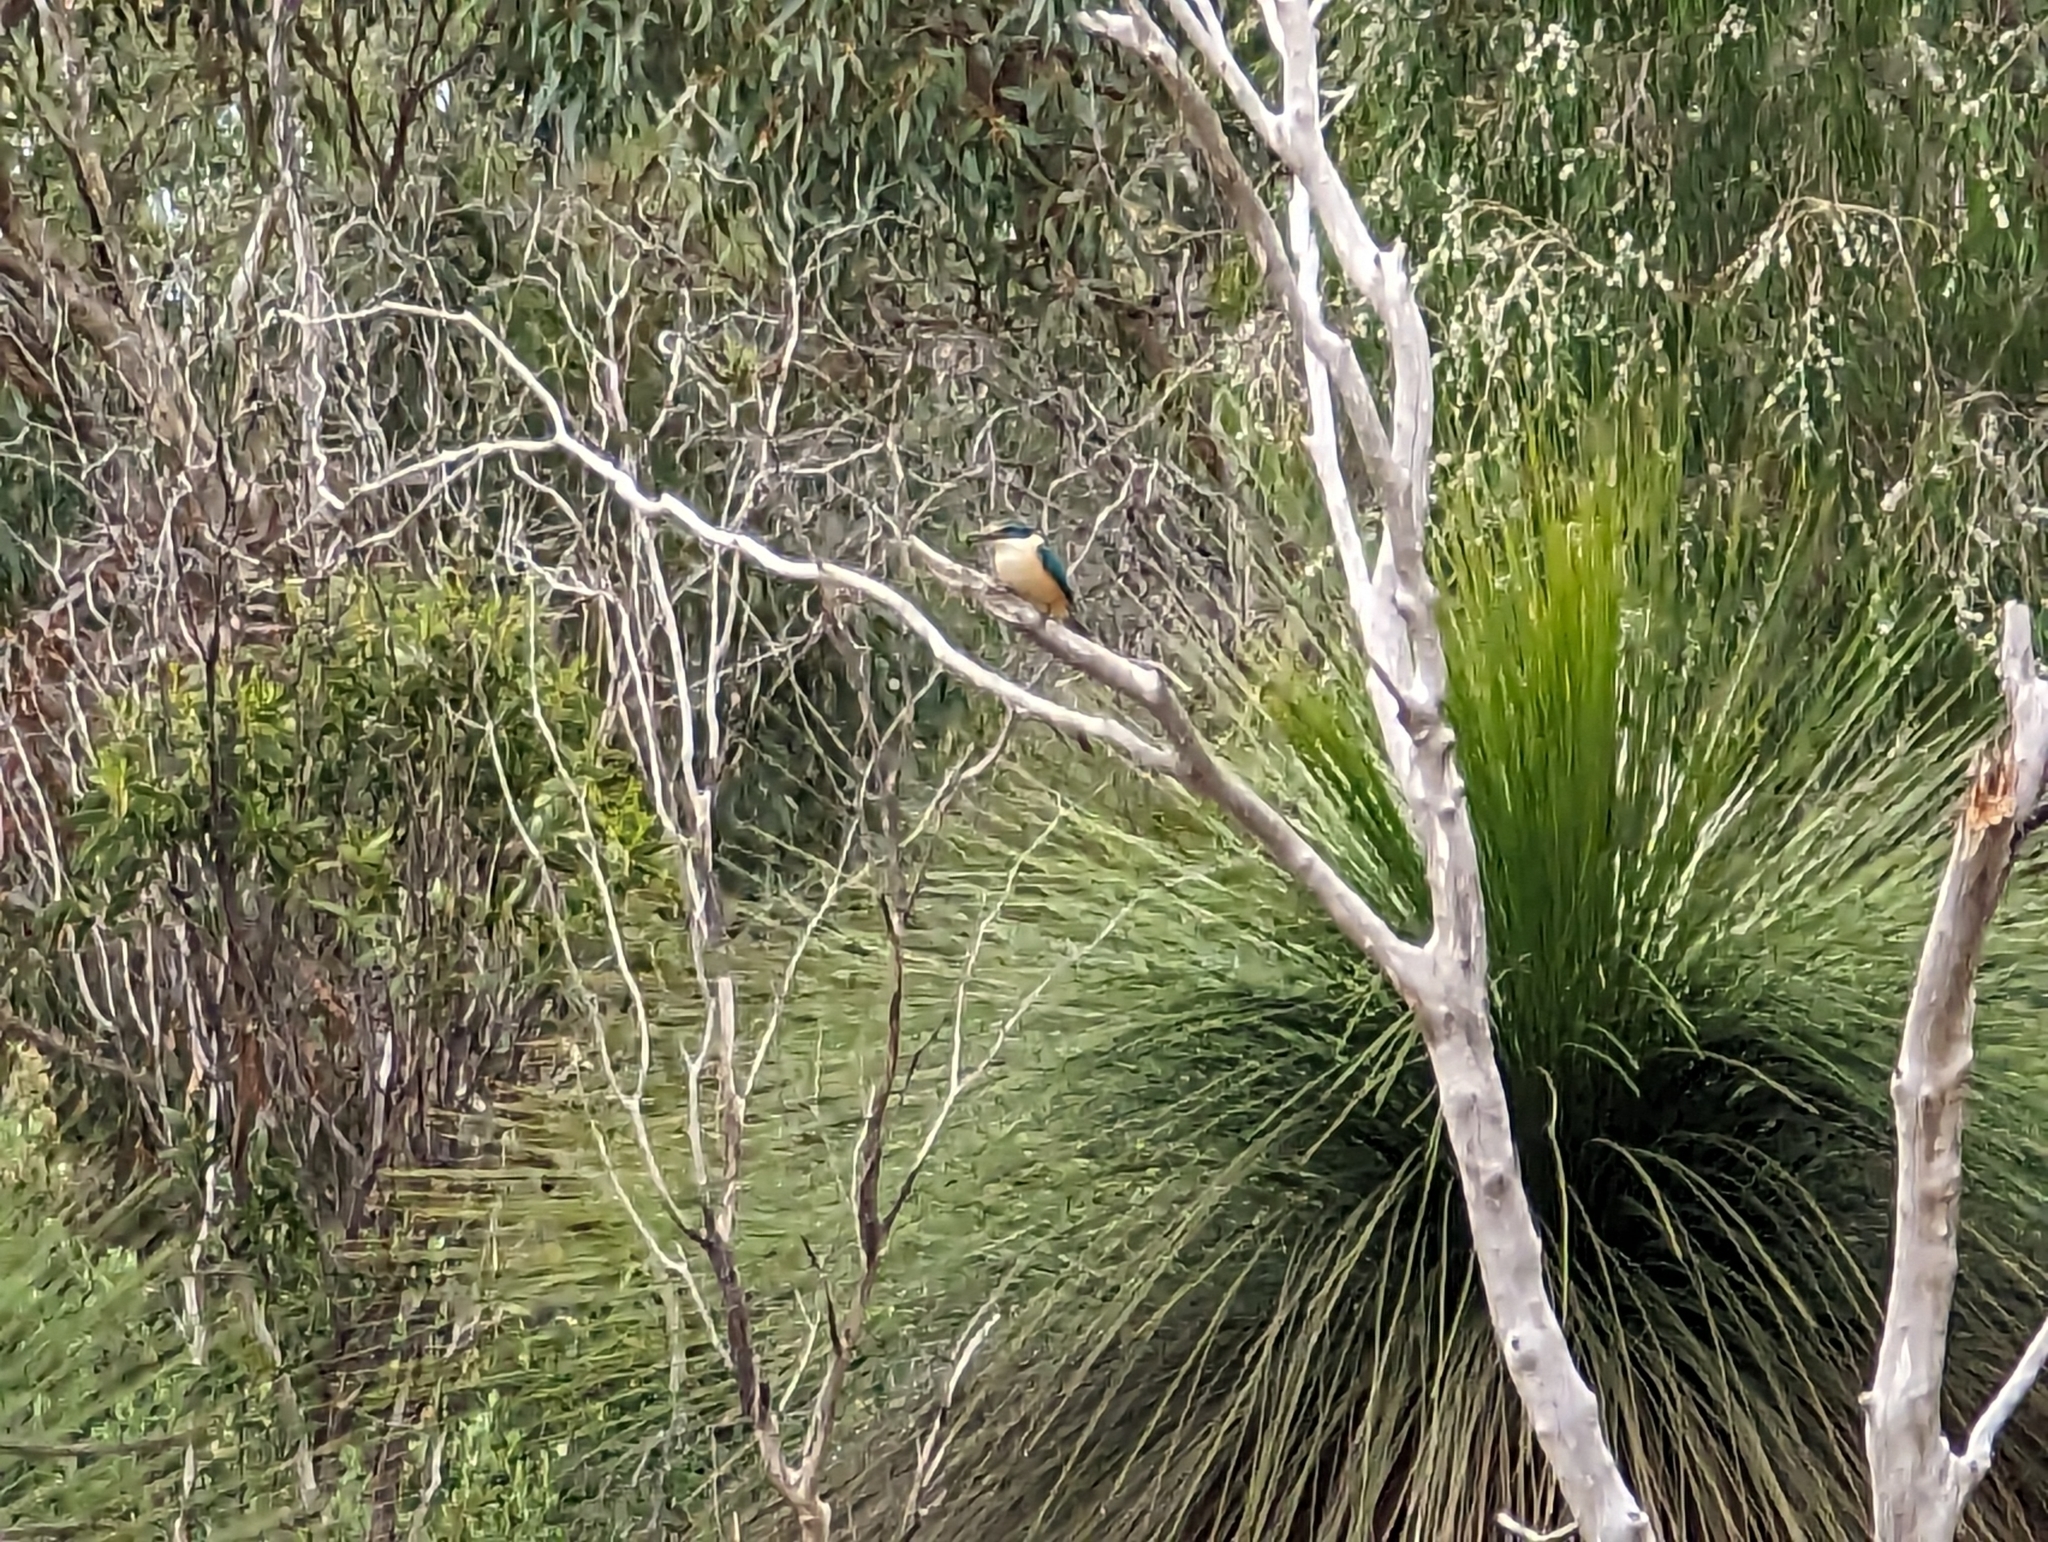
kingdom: Animalia
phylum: Chordata
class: Aves
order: Coraciiformes
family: Alcedinidae
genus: Todiramphus
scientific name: Todiramphus sanctus
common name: Sacred kingfisher
